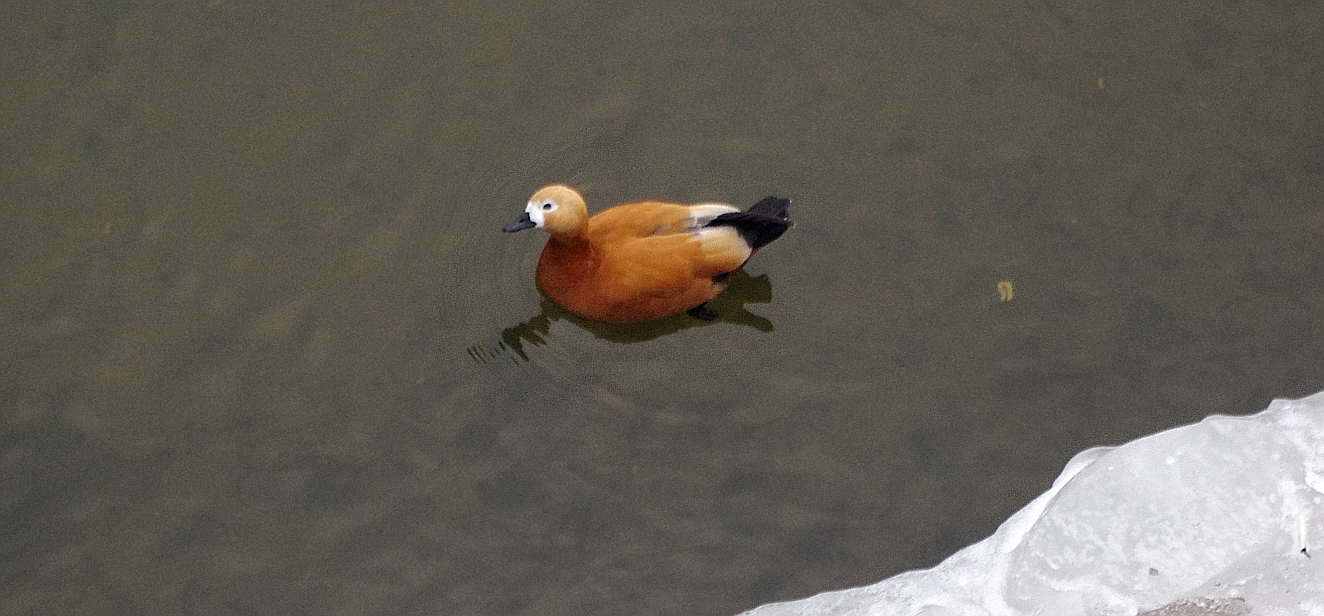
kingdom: Animalia
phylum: Chordata
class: Aves
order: Anseriformes
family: Anatidae
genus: Tadorna
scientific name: Tadorna ferruginea
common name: Ruddy shelduck
